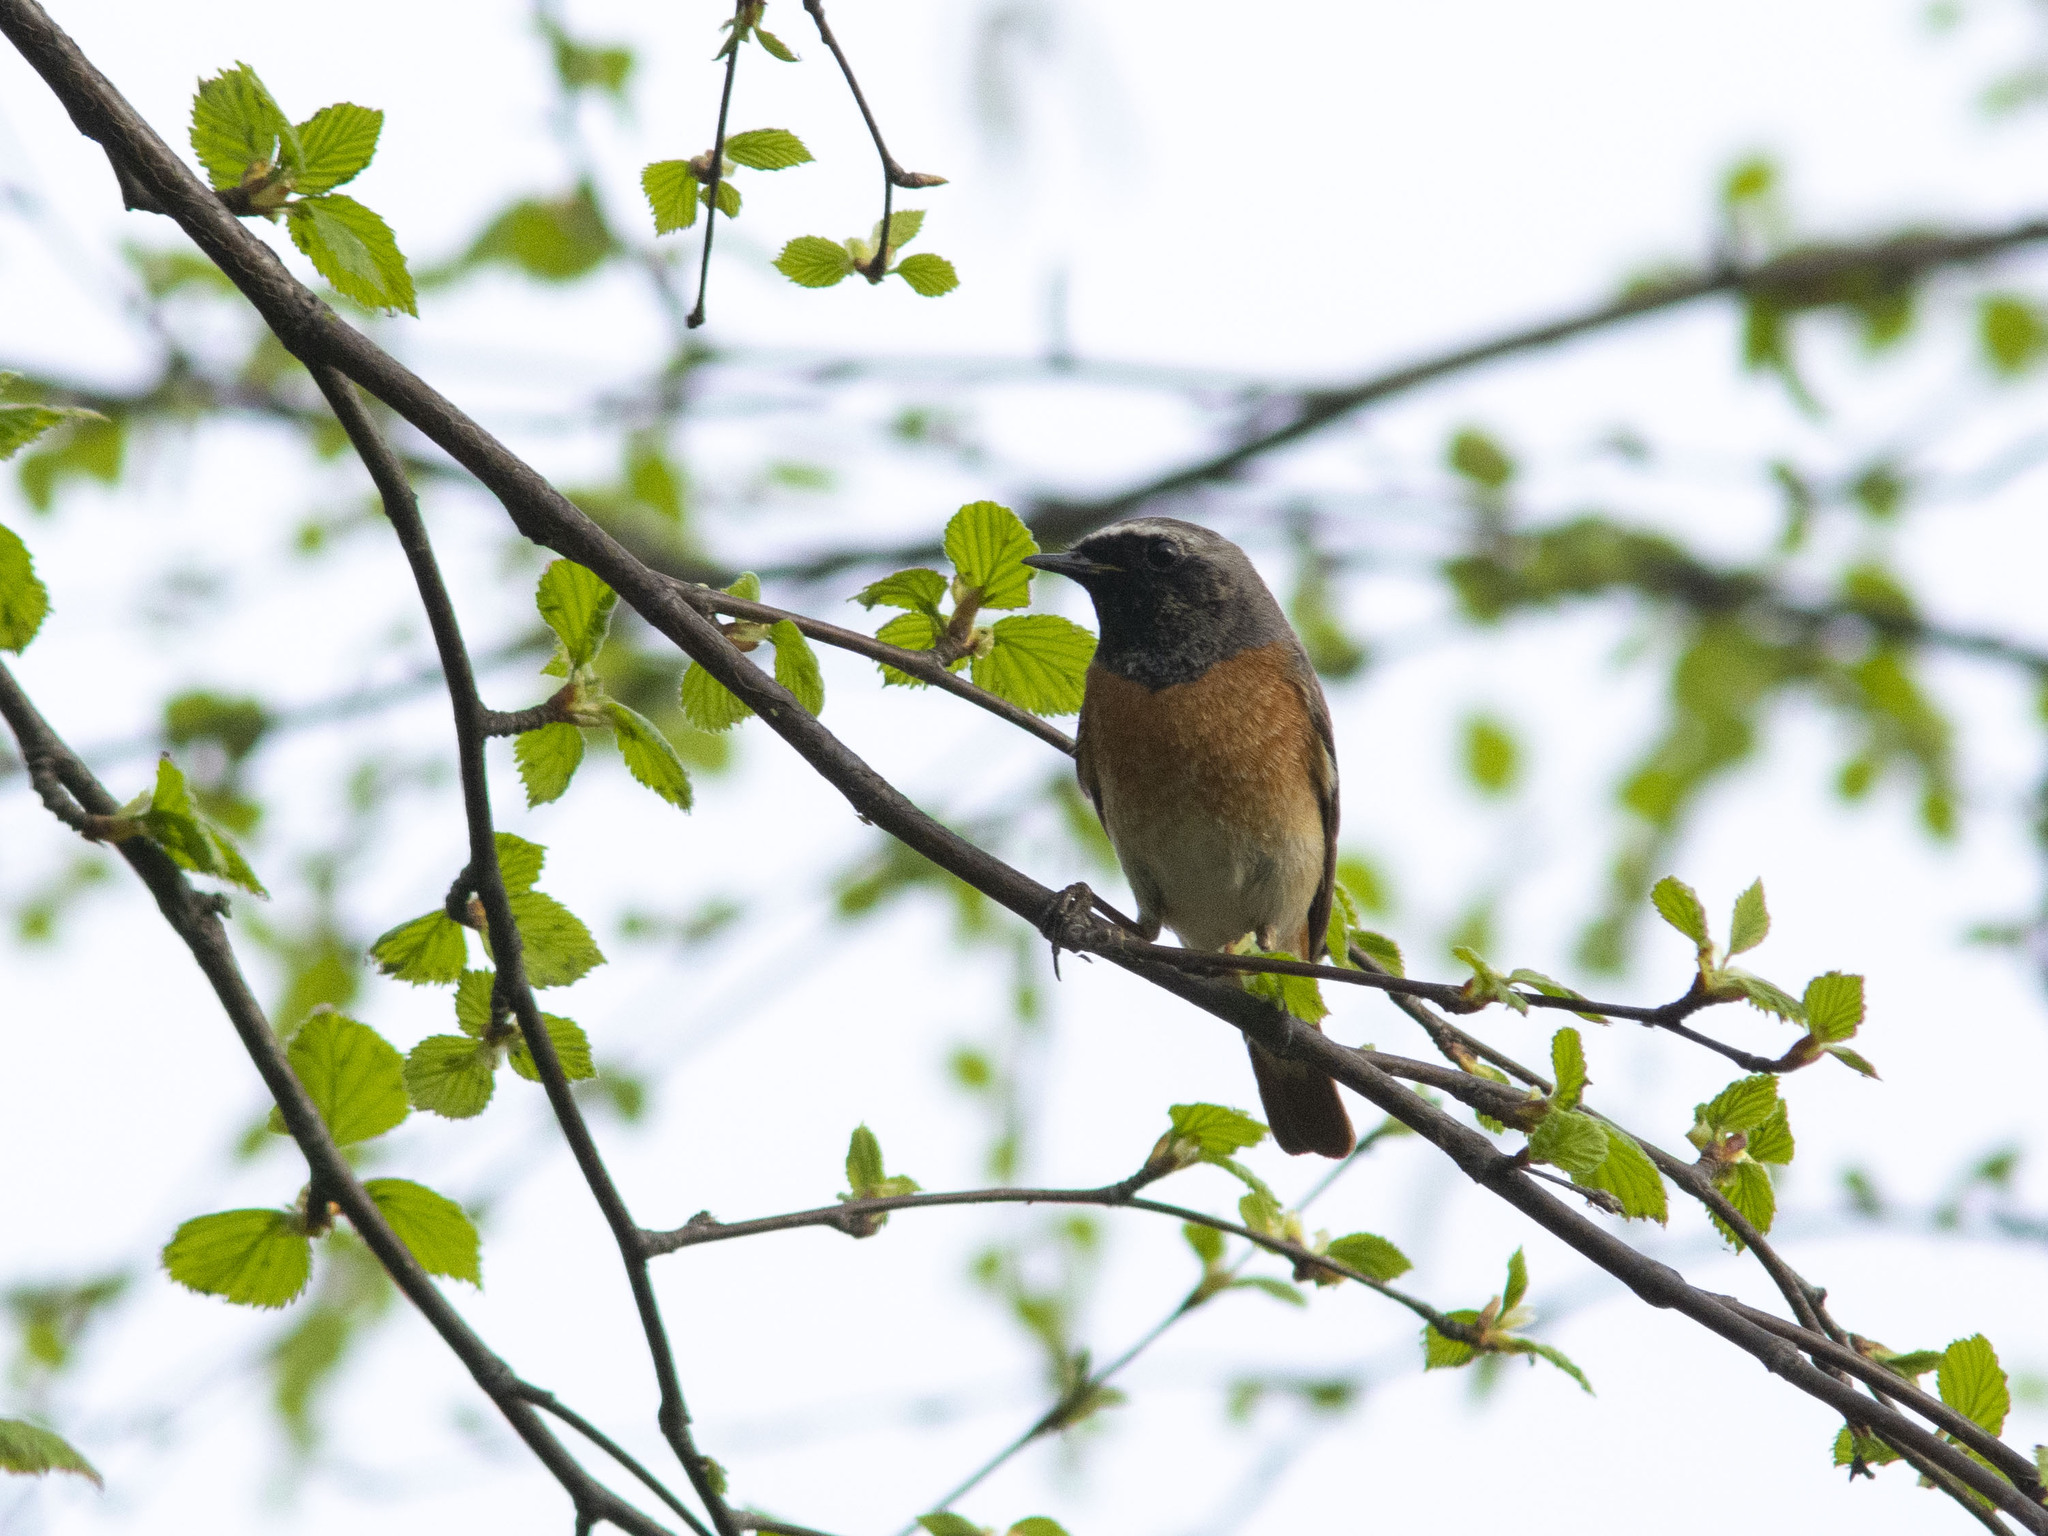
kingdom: Animalia
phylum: Chordata
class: Aves
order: Passeriformes
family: Muscicapidae
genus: Phoenicurus
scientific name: Phoenicurus phoenicurus
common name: Common redstart
